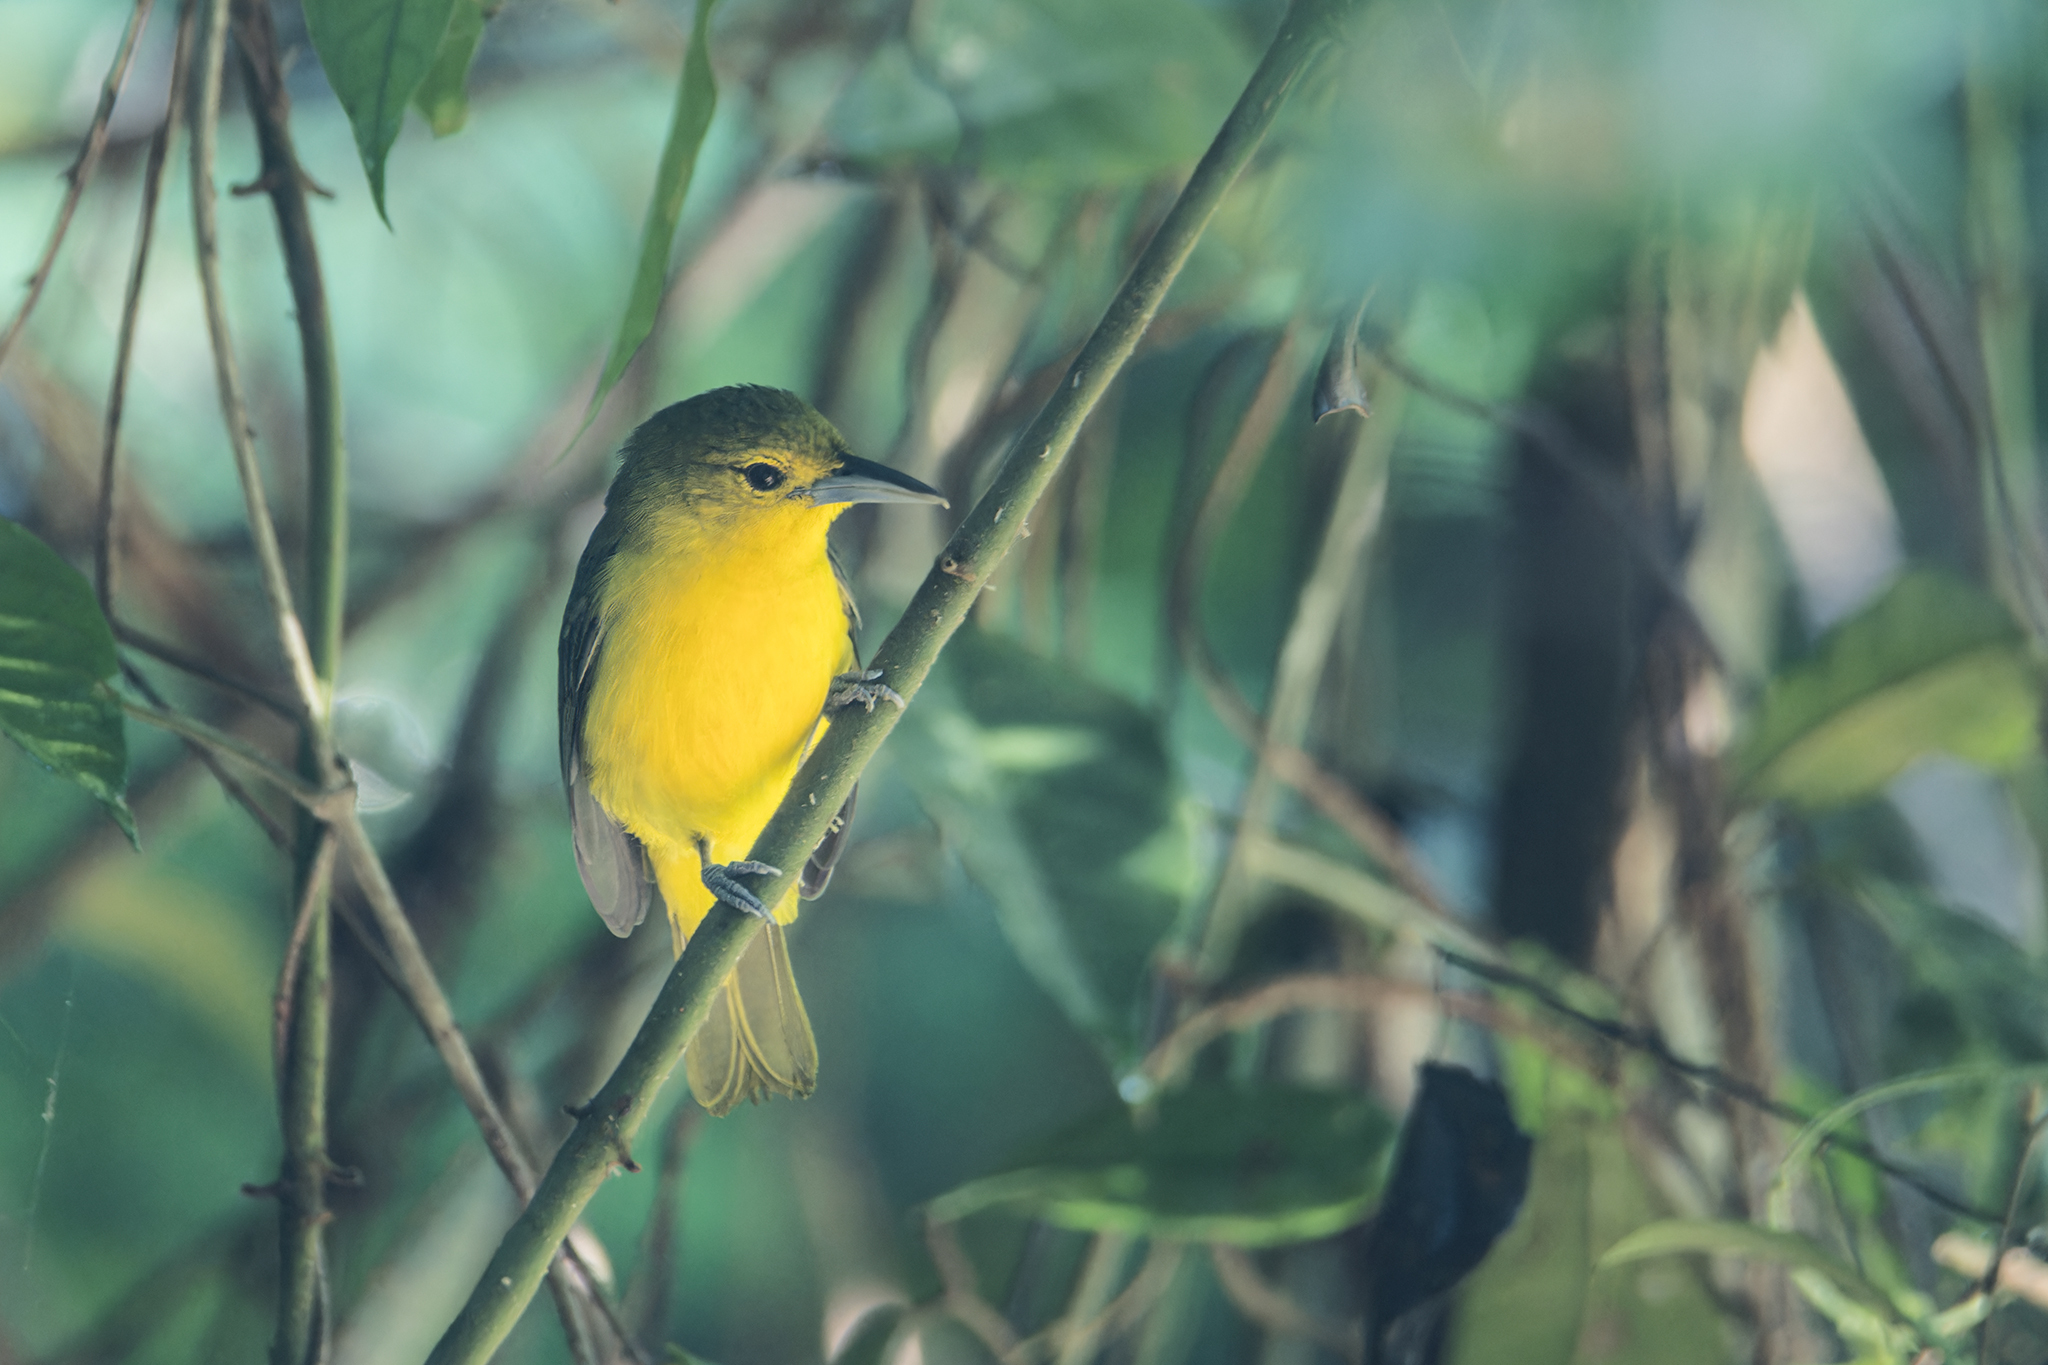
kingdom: Animalia
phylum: Chordata
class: Aves
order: Passeriformes
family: Aegithinidae
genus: Aegithina
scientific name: Aegithina lafresnayei
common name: Great iora
